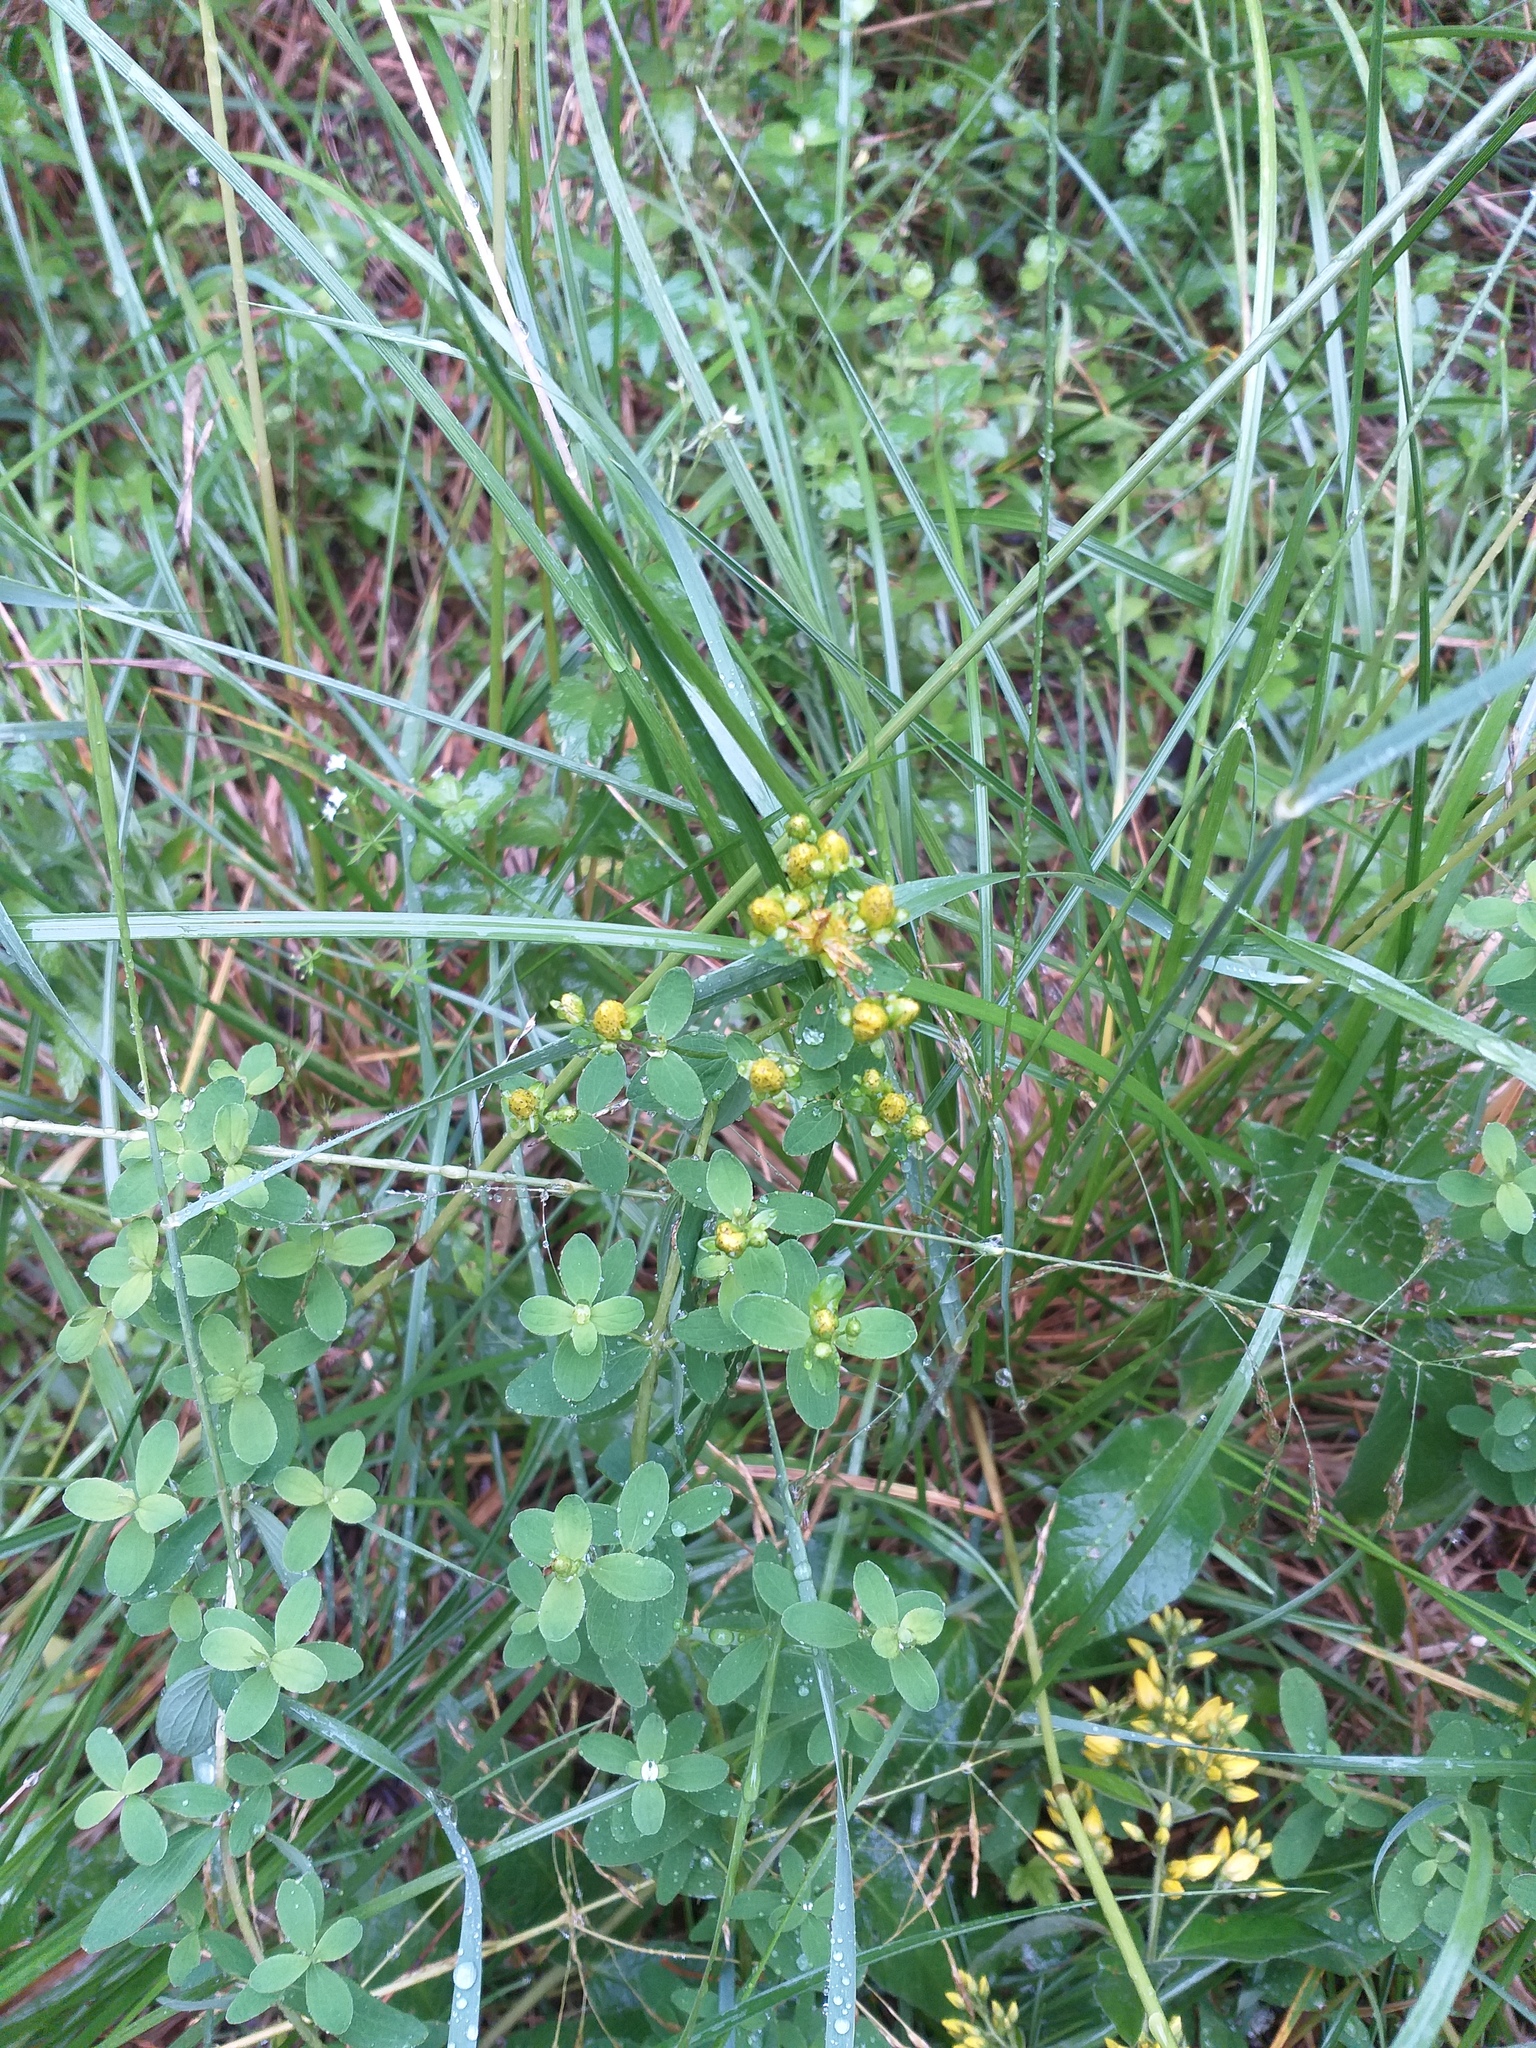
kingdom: Plantae
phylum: Tracheophyta
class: Magnoliopsida
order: Malpighiales
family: Hypericaceae
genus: Hypericum
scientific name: Hypericum maculatum
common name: Imperforate st. john's-wort
